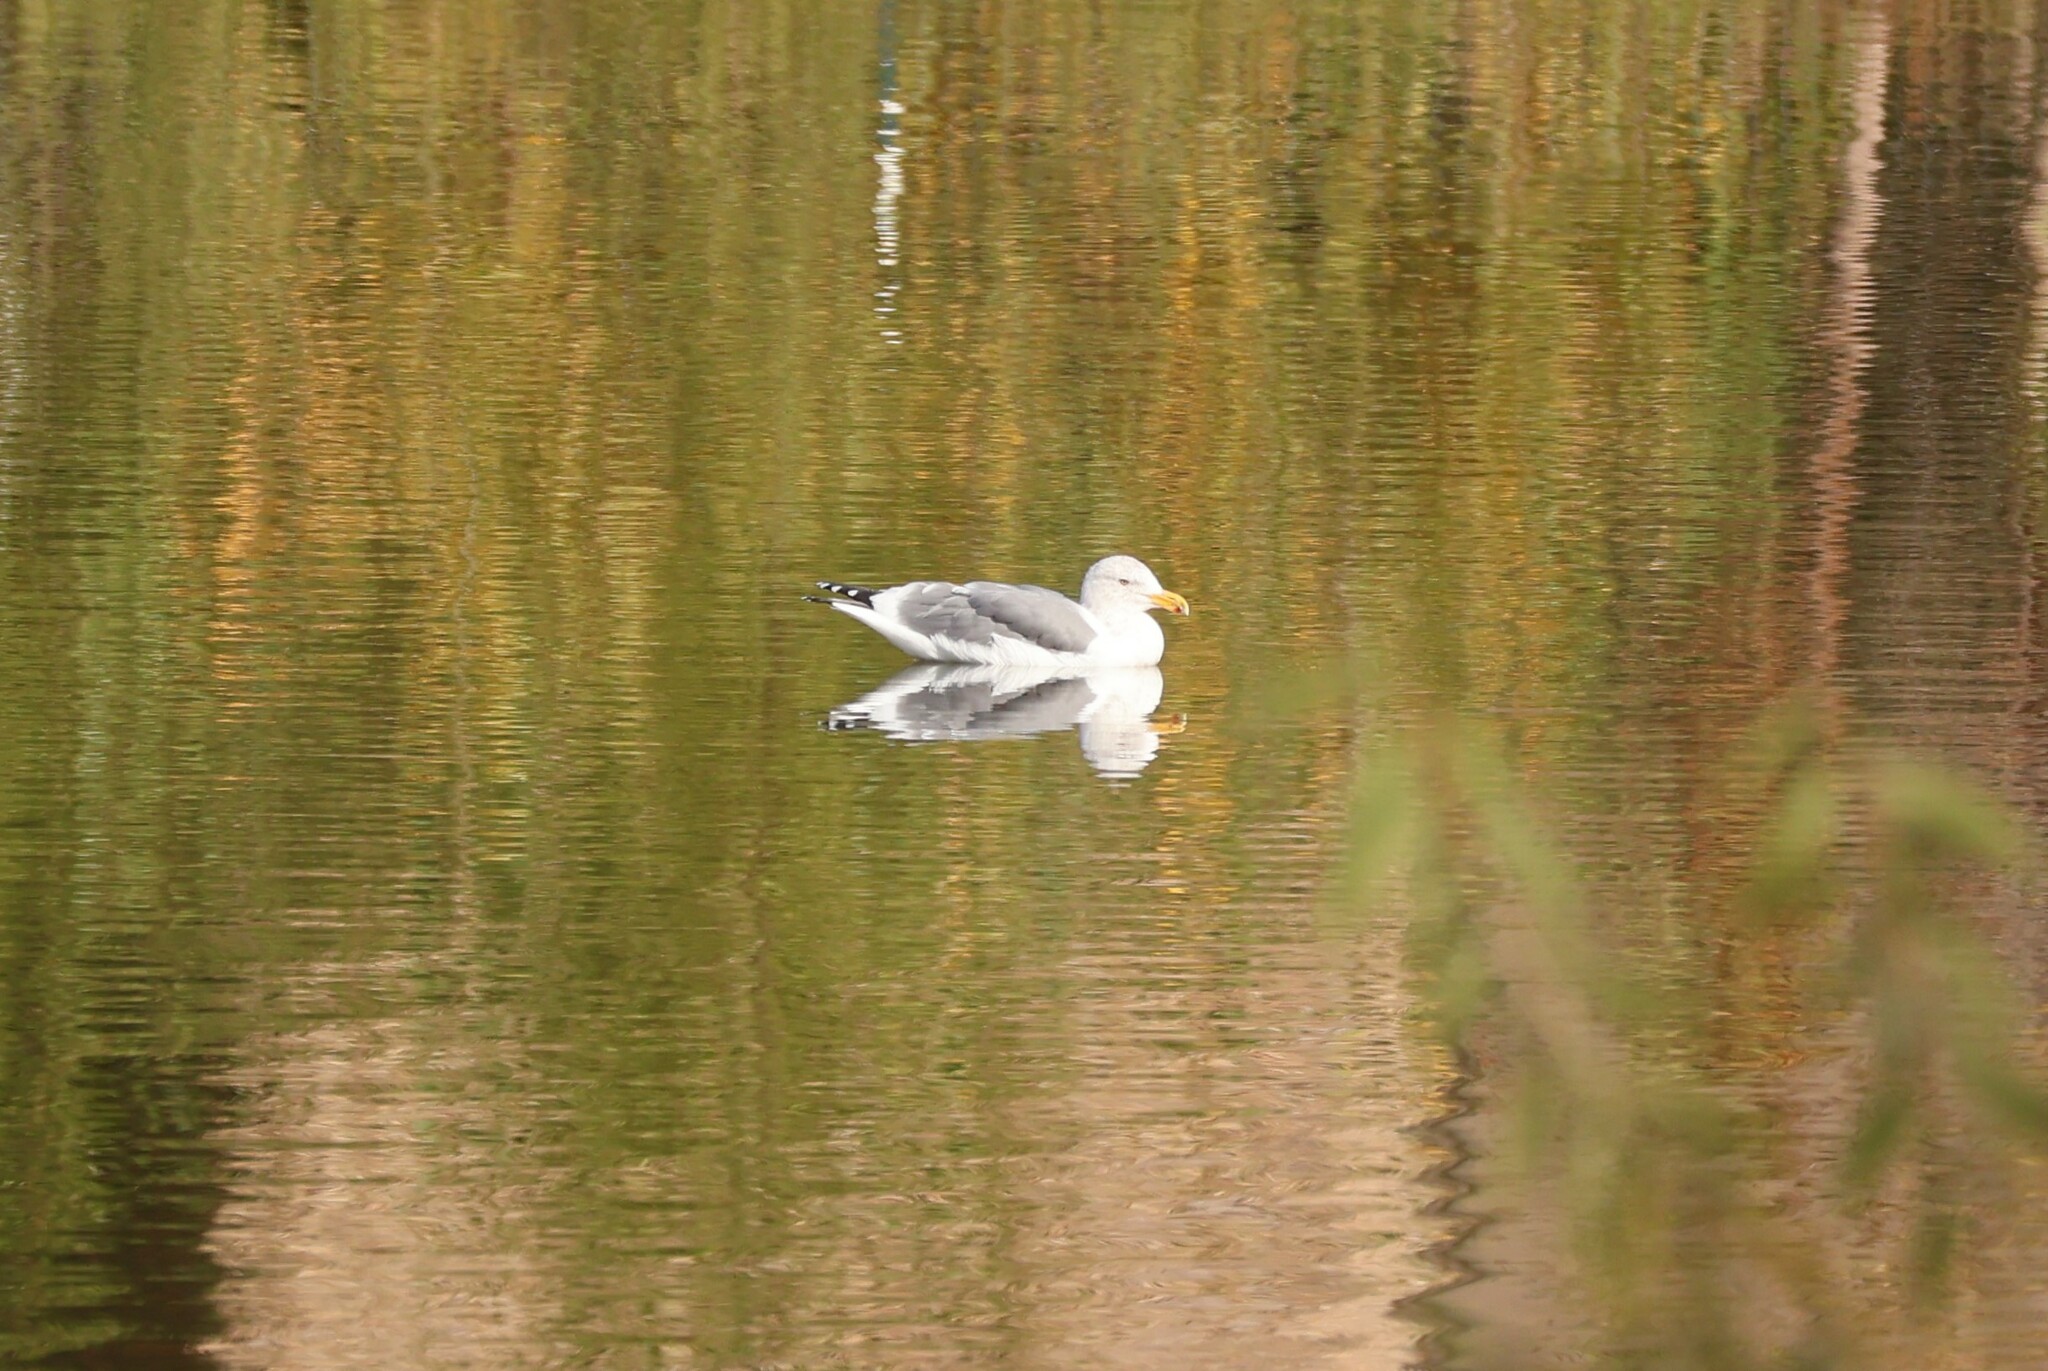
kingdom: Animalia
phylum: Chordata
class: Aves
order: Charadriiformes
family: Laridae
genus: Larus
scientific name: Larus occidentalis
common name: Western gull
